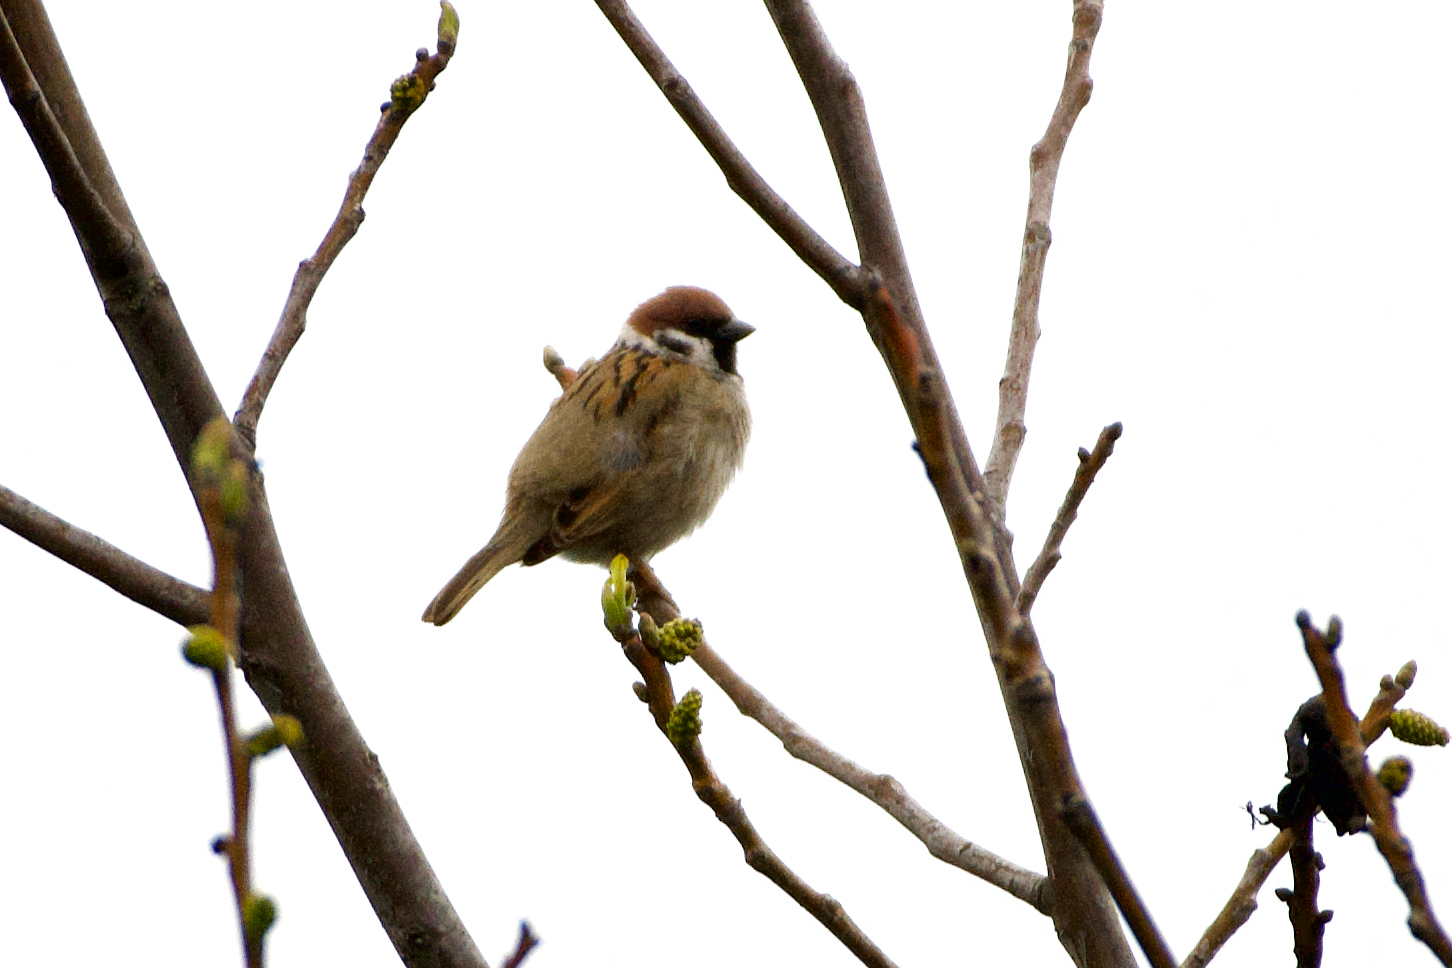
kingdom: Animalia
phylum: Chordata
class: Aves
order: Passeriformes
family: Passeridae
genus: Passer
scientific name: Passer montanus
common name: Eurasian tree sparrow
